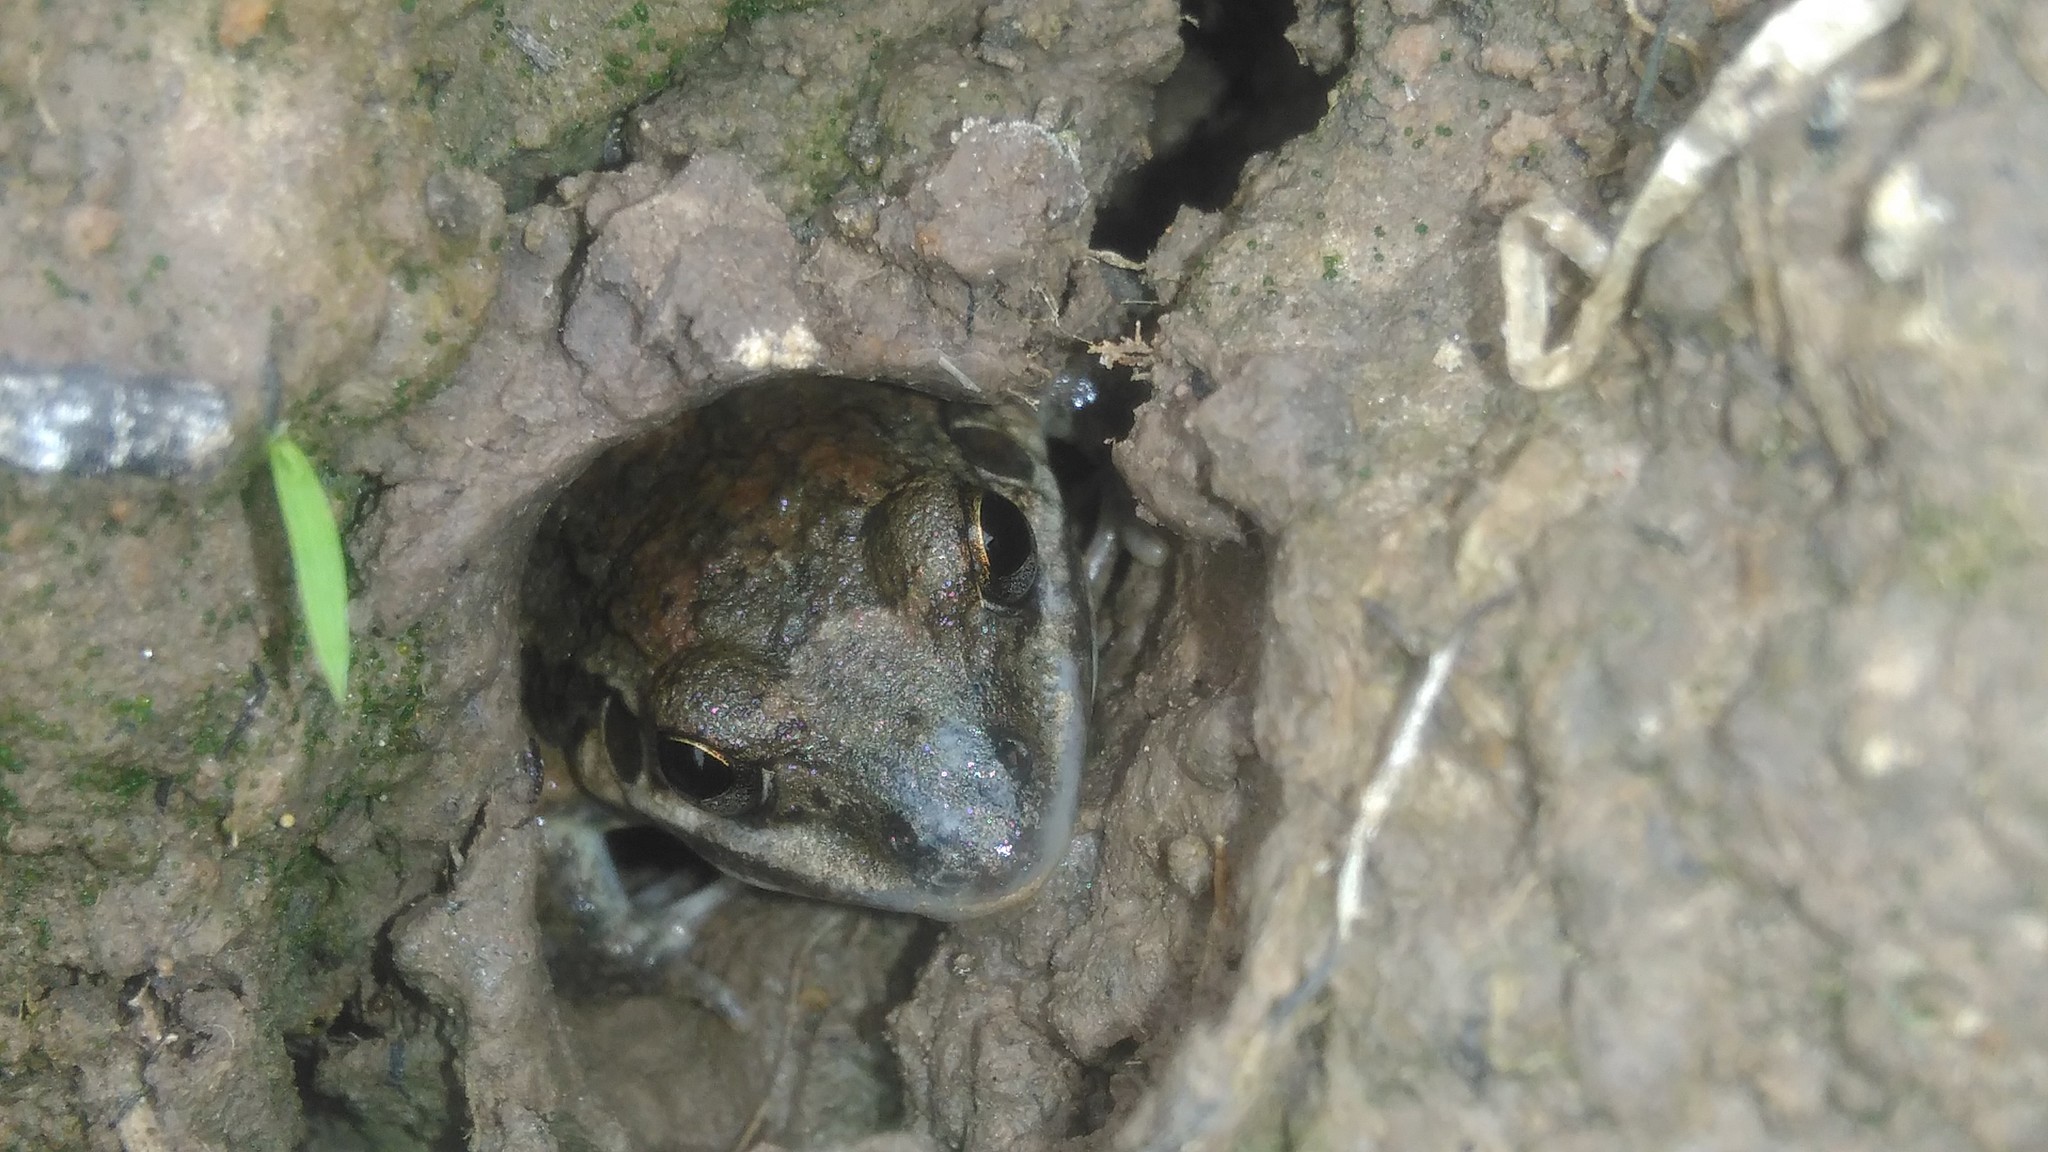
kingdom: Animalia
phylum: Chordata
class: Amphibia
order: Anura
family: Leptodactylidae
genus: Leptodactylus
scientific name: Leptodactylus latinasus
